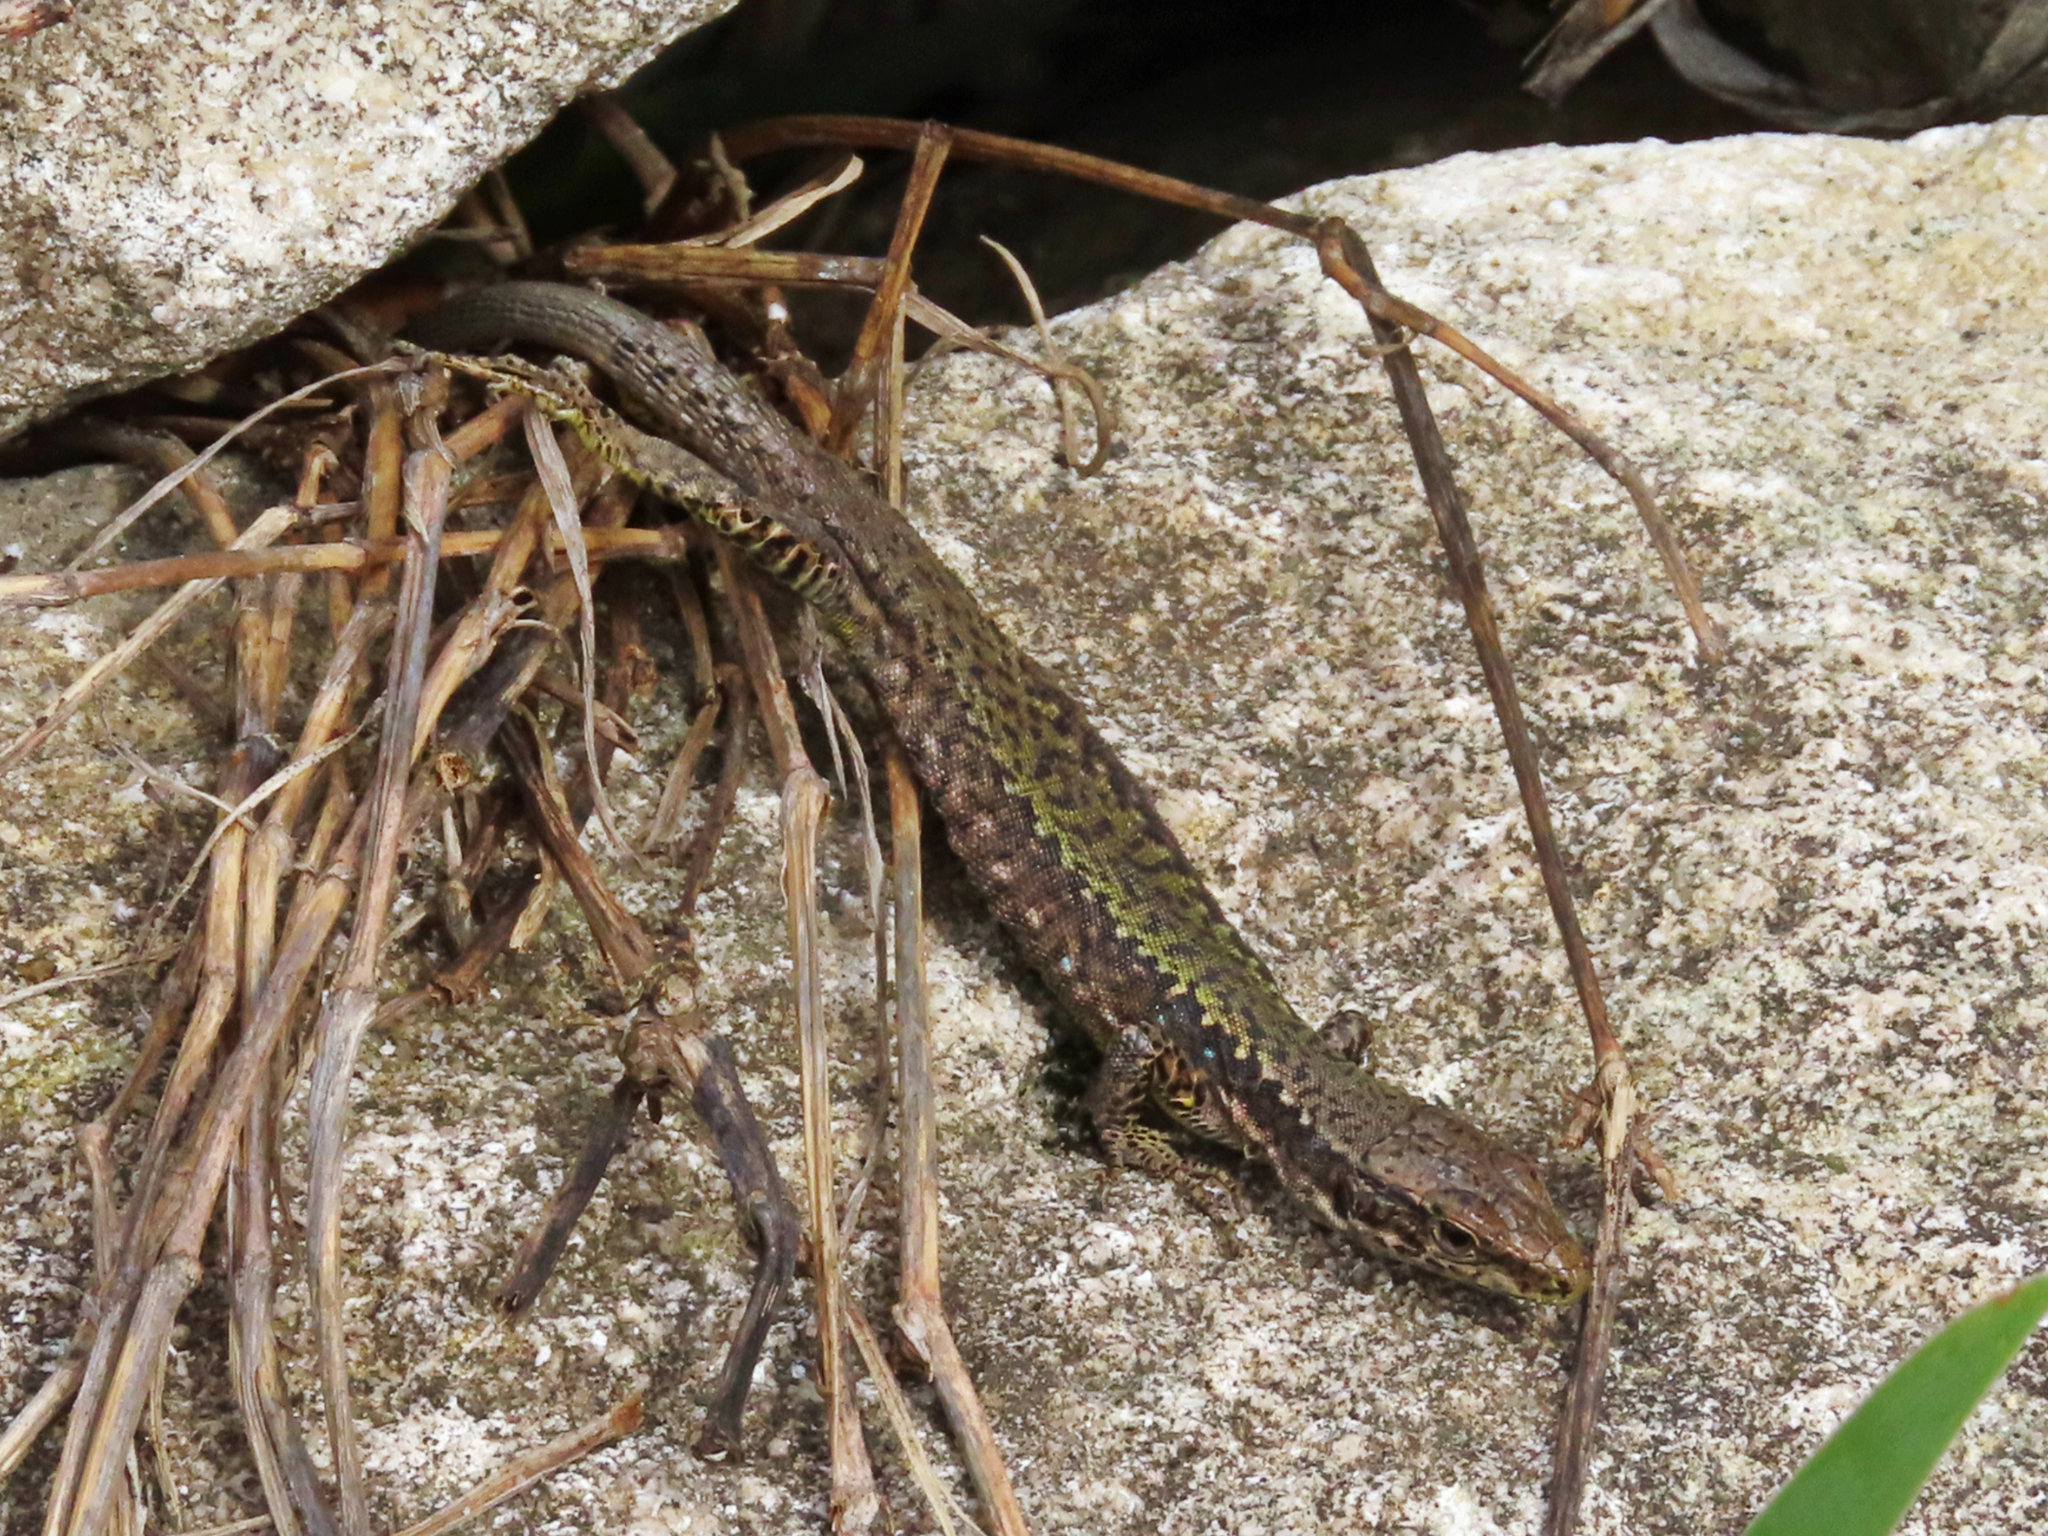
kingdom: Animalia
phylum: Chordata
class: Squamata
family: Lacertidae
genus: Darevskia
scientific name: Darevskia mixta
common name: Ajarian lizard
